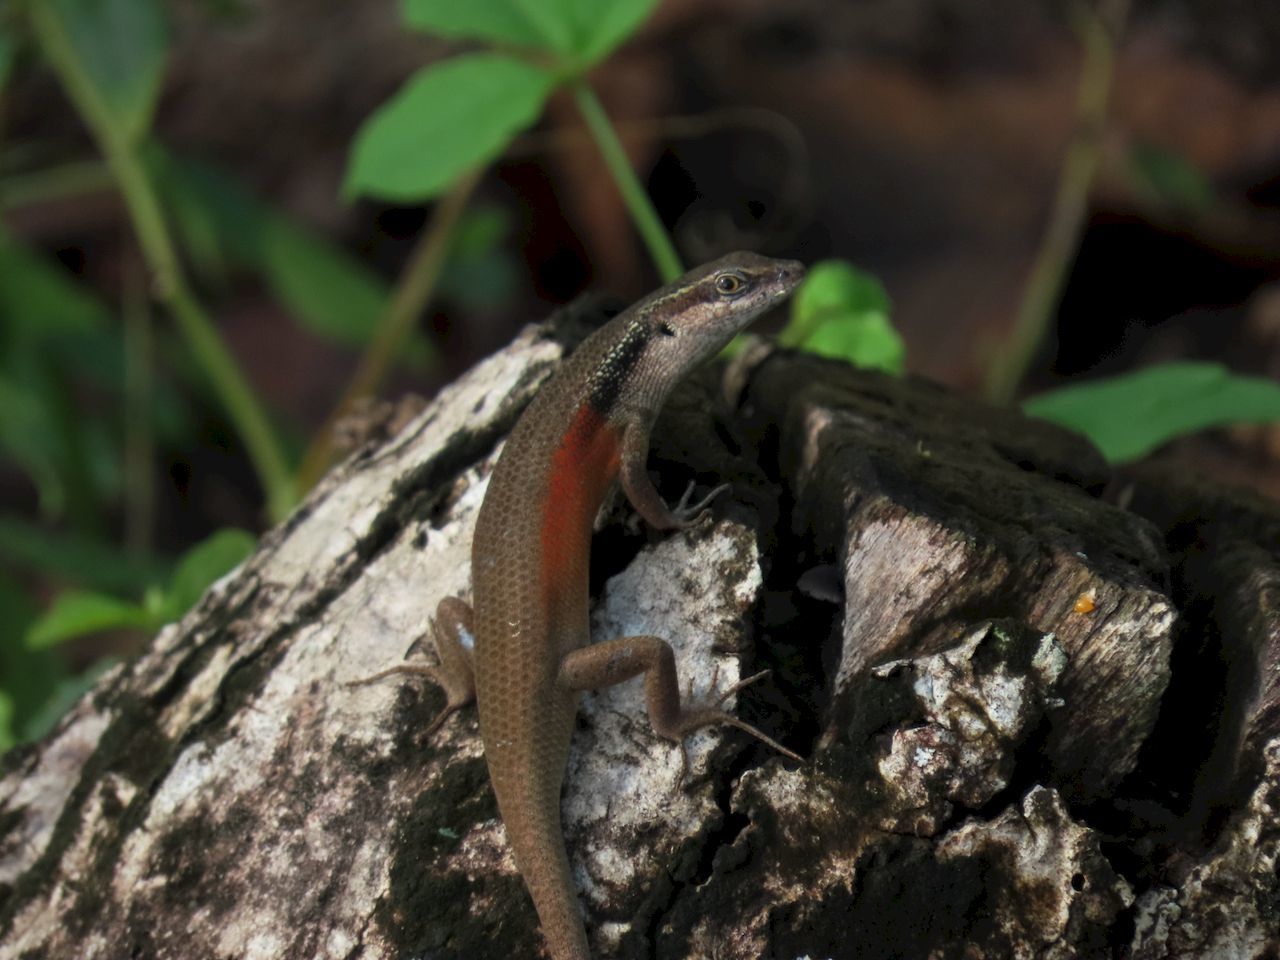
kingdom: Animalia
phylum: Chordata
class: Squamata
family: Scincidae
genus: Carlia
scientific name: Carlia longipes
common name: Closed-litter rainbow-skink
